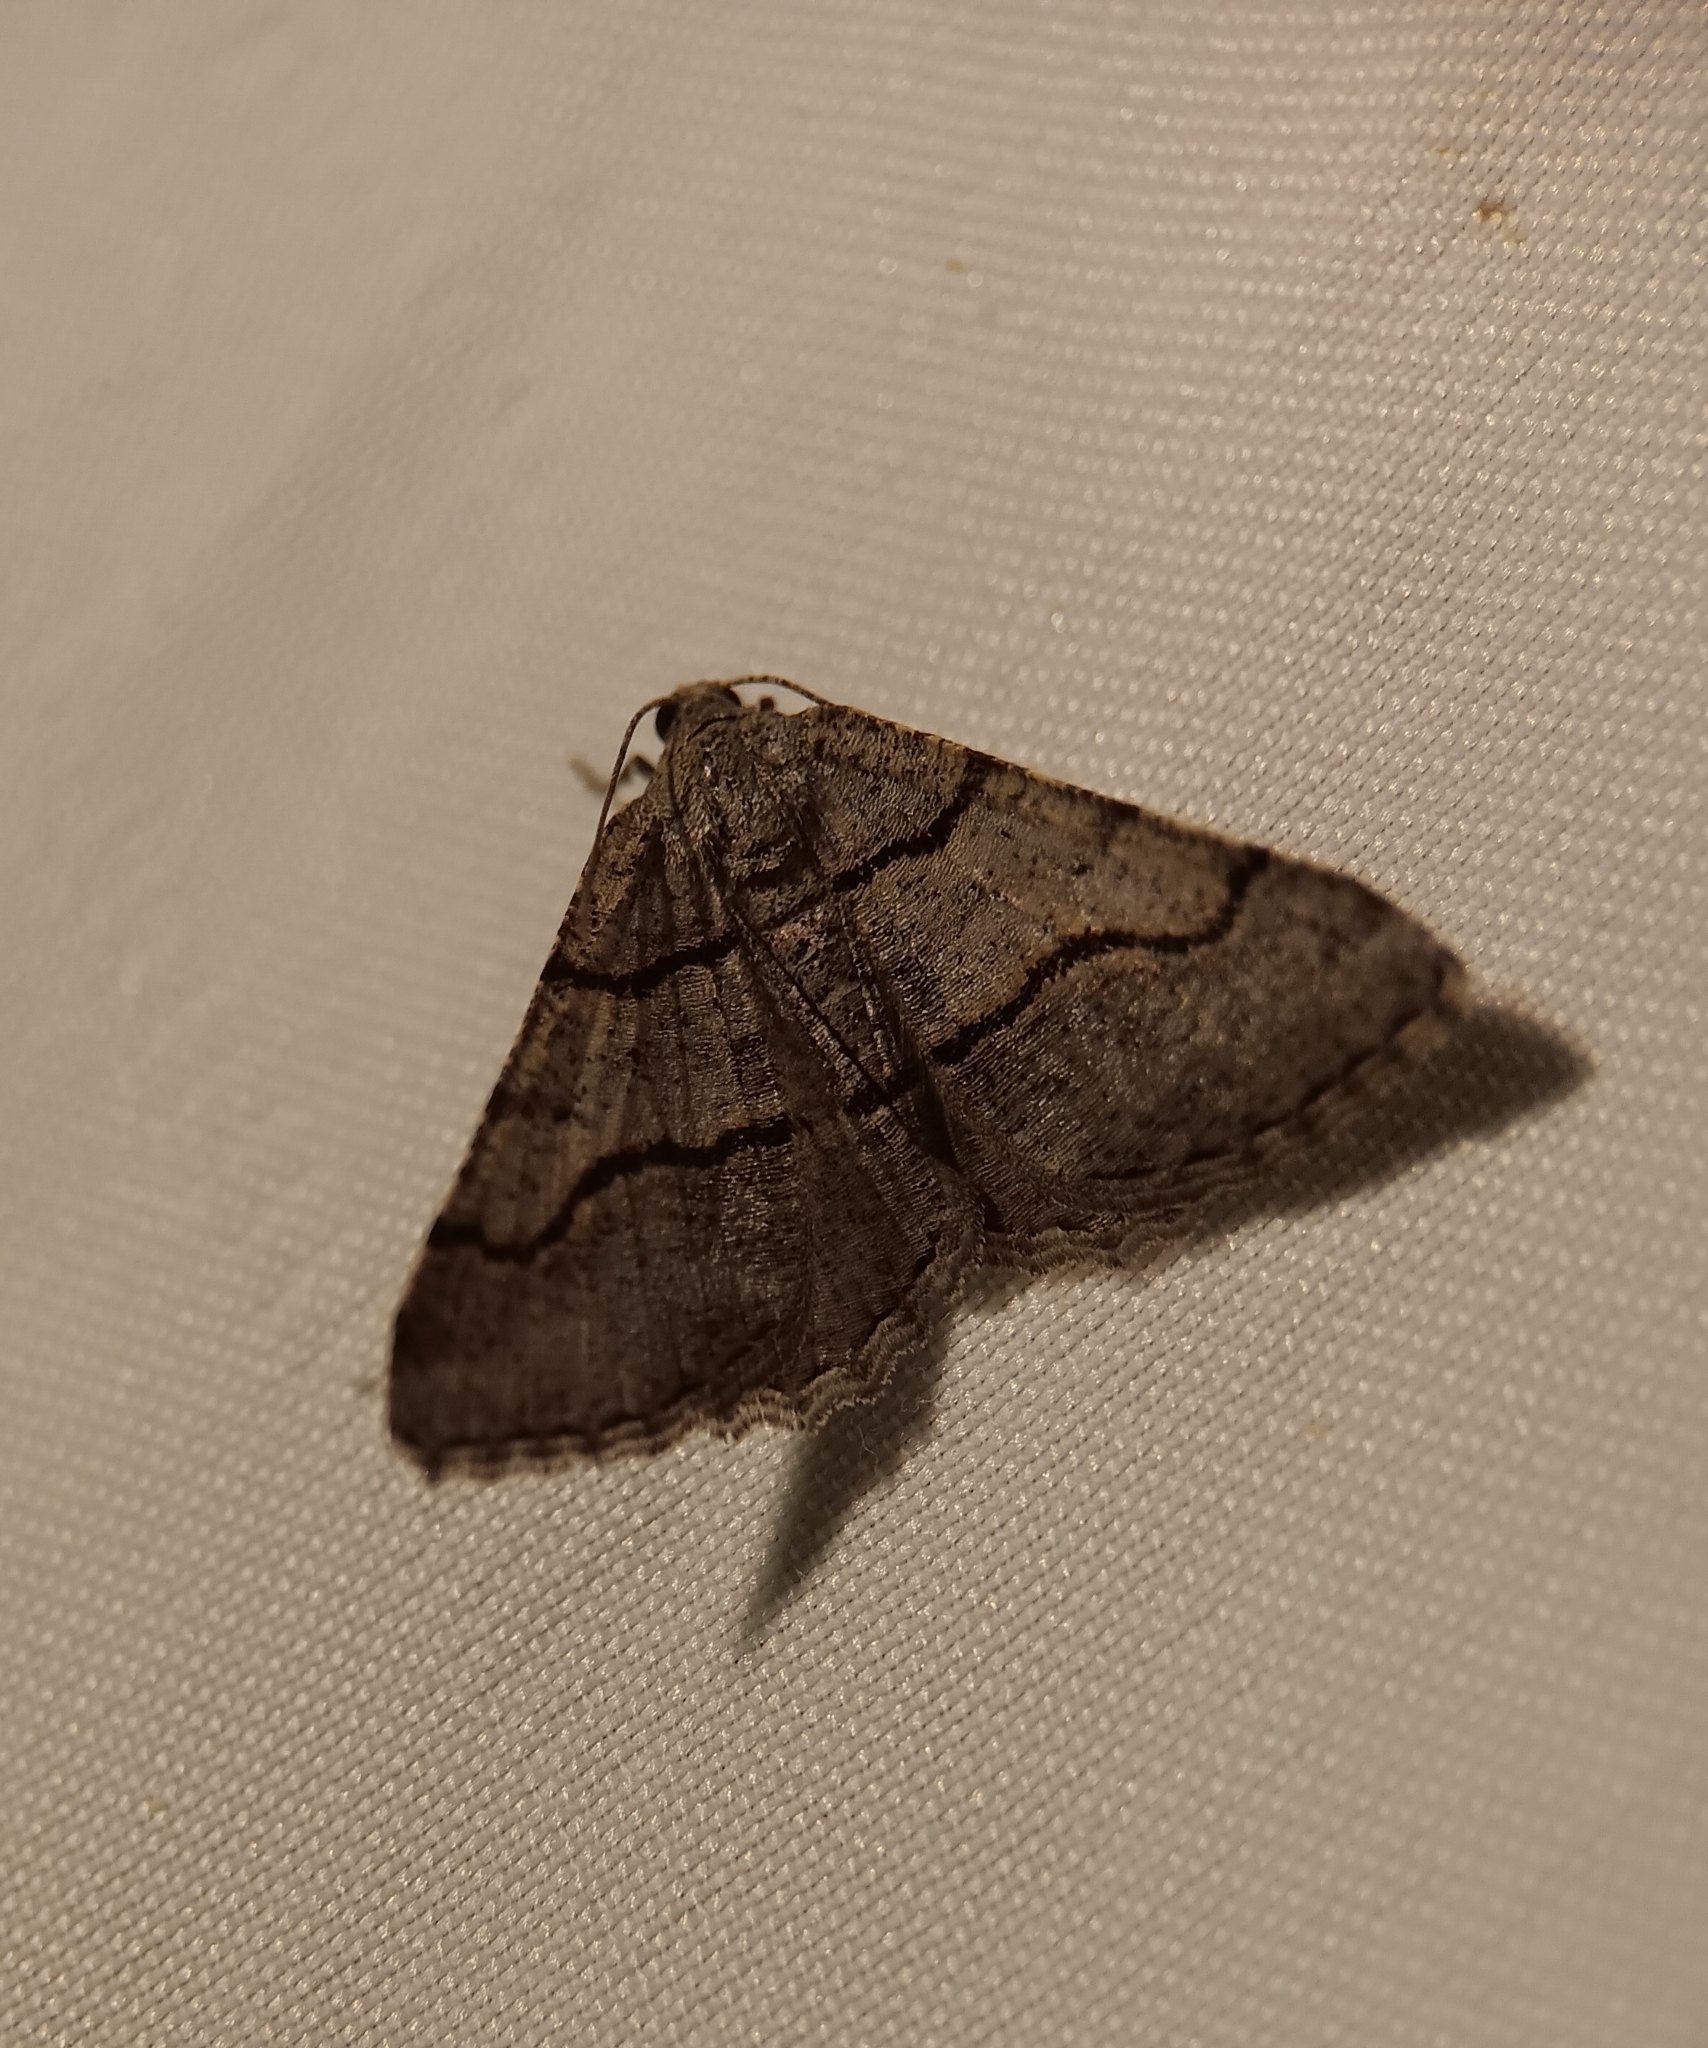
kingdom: Animalia
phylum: Arthropoda
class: Insecta
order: Lepidoptera
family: Geometridae
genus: Digrammia
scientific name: Digrammia continuata
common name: Curve-lined angle
